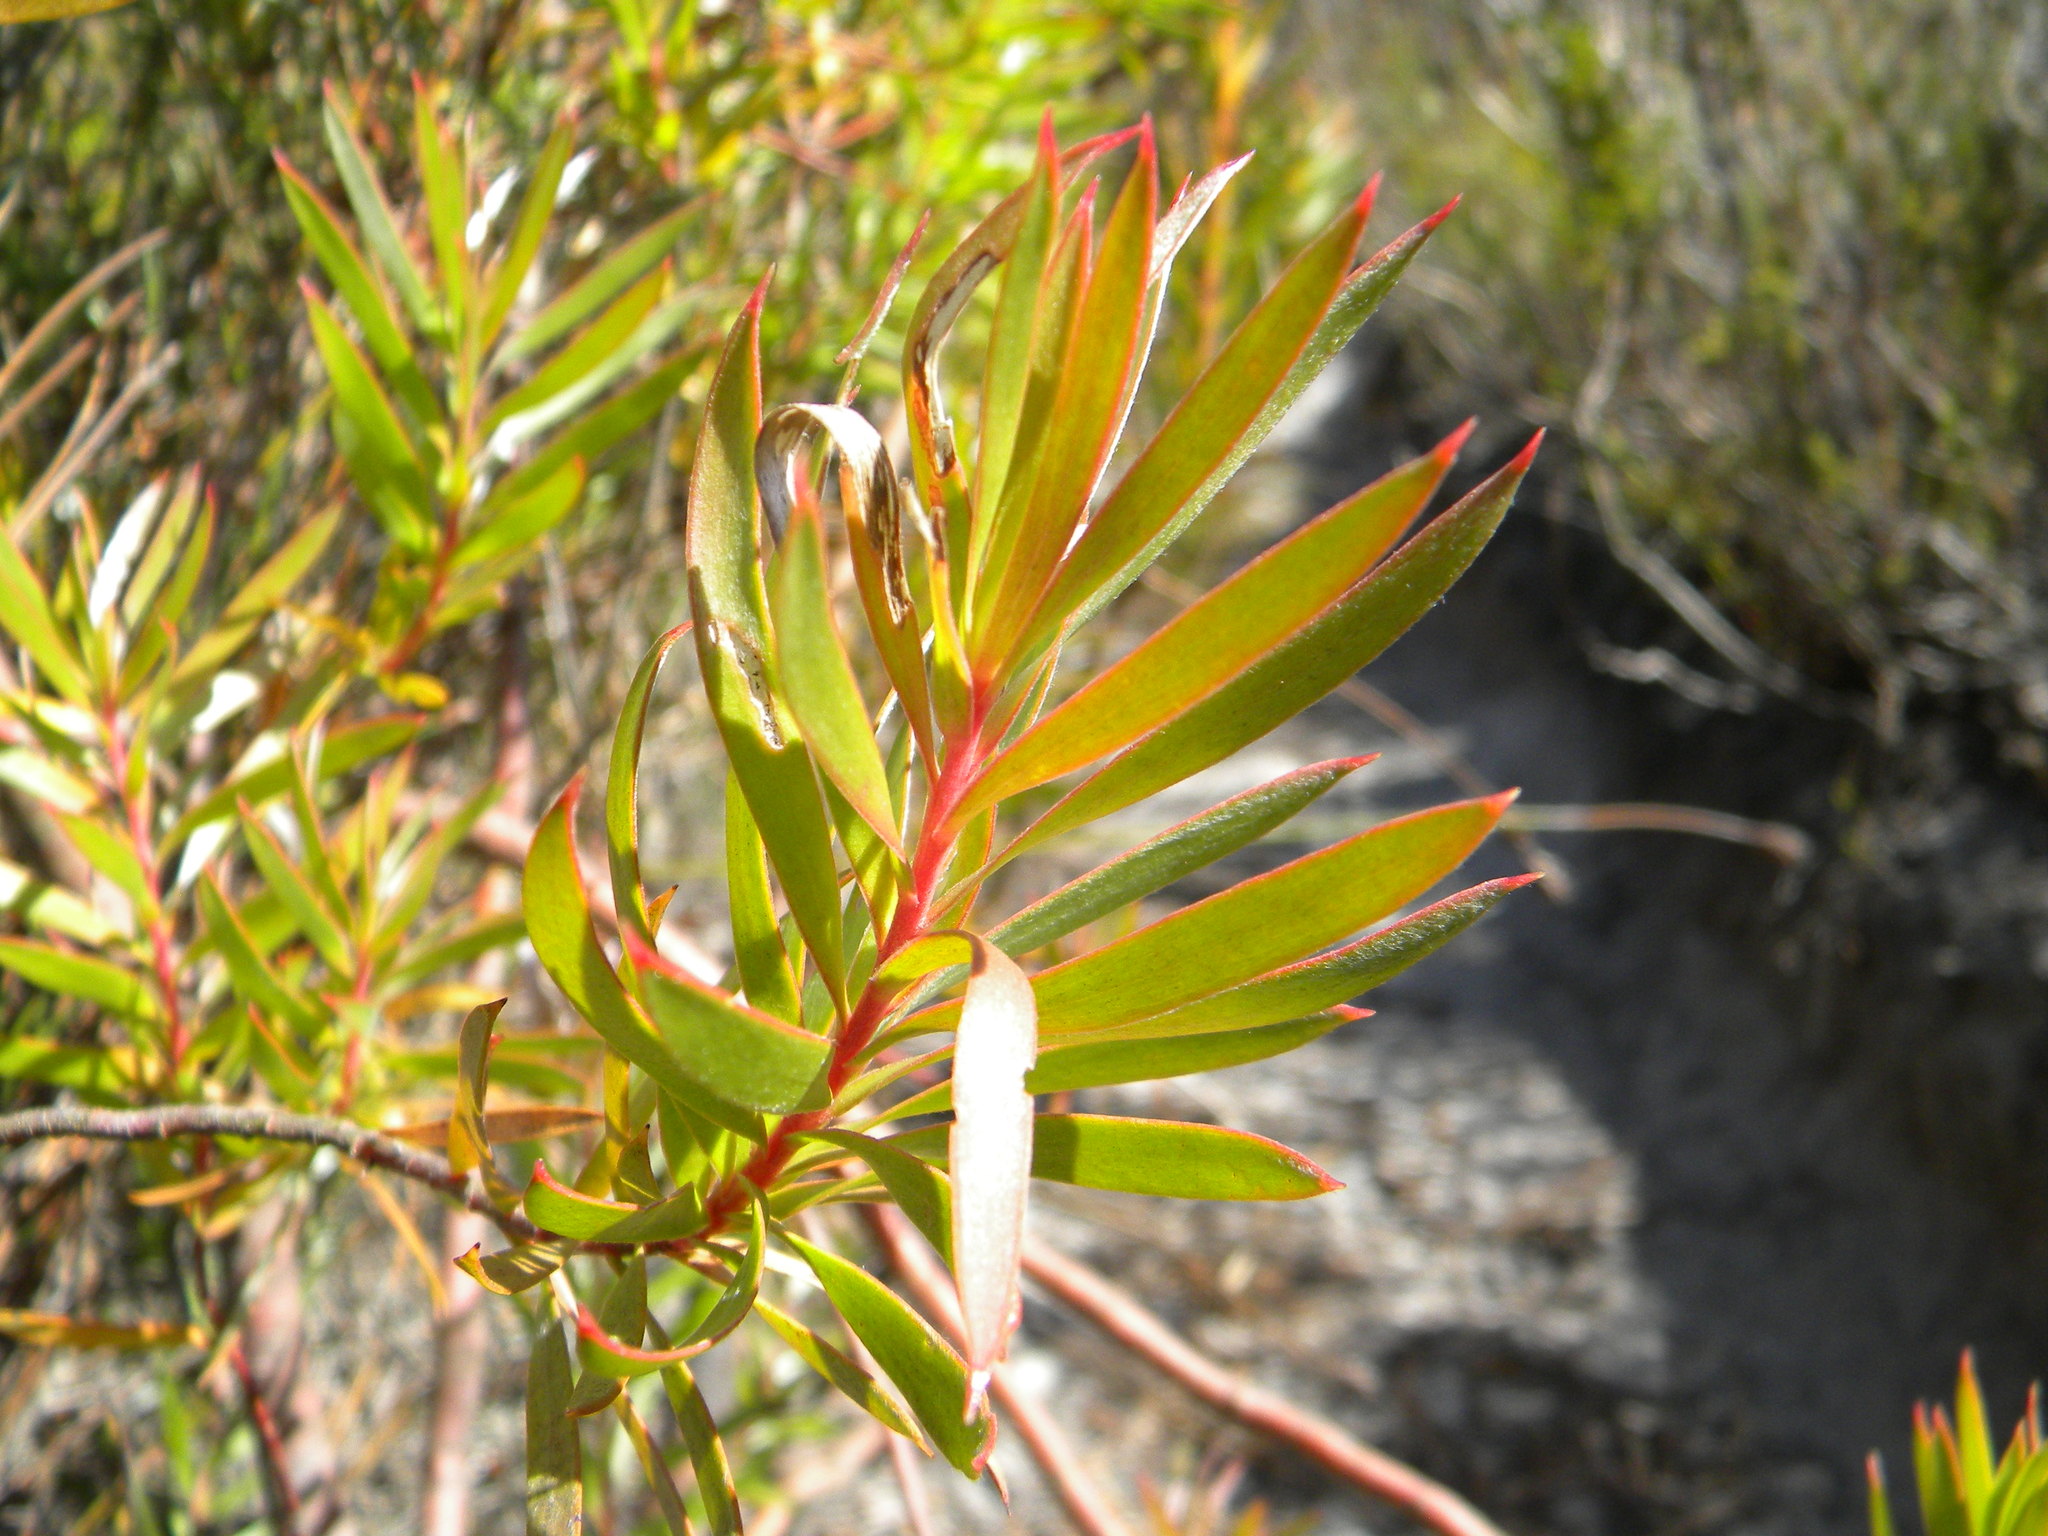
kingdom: Plantae
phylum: Tracheophyta
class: Magnoliopsida
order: Proteales
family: Proteaceae
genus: Leucadendron
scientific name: Leucadendron xanthoconus
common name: Sickle-leaf conebush
